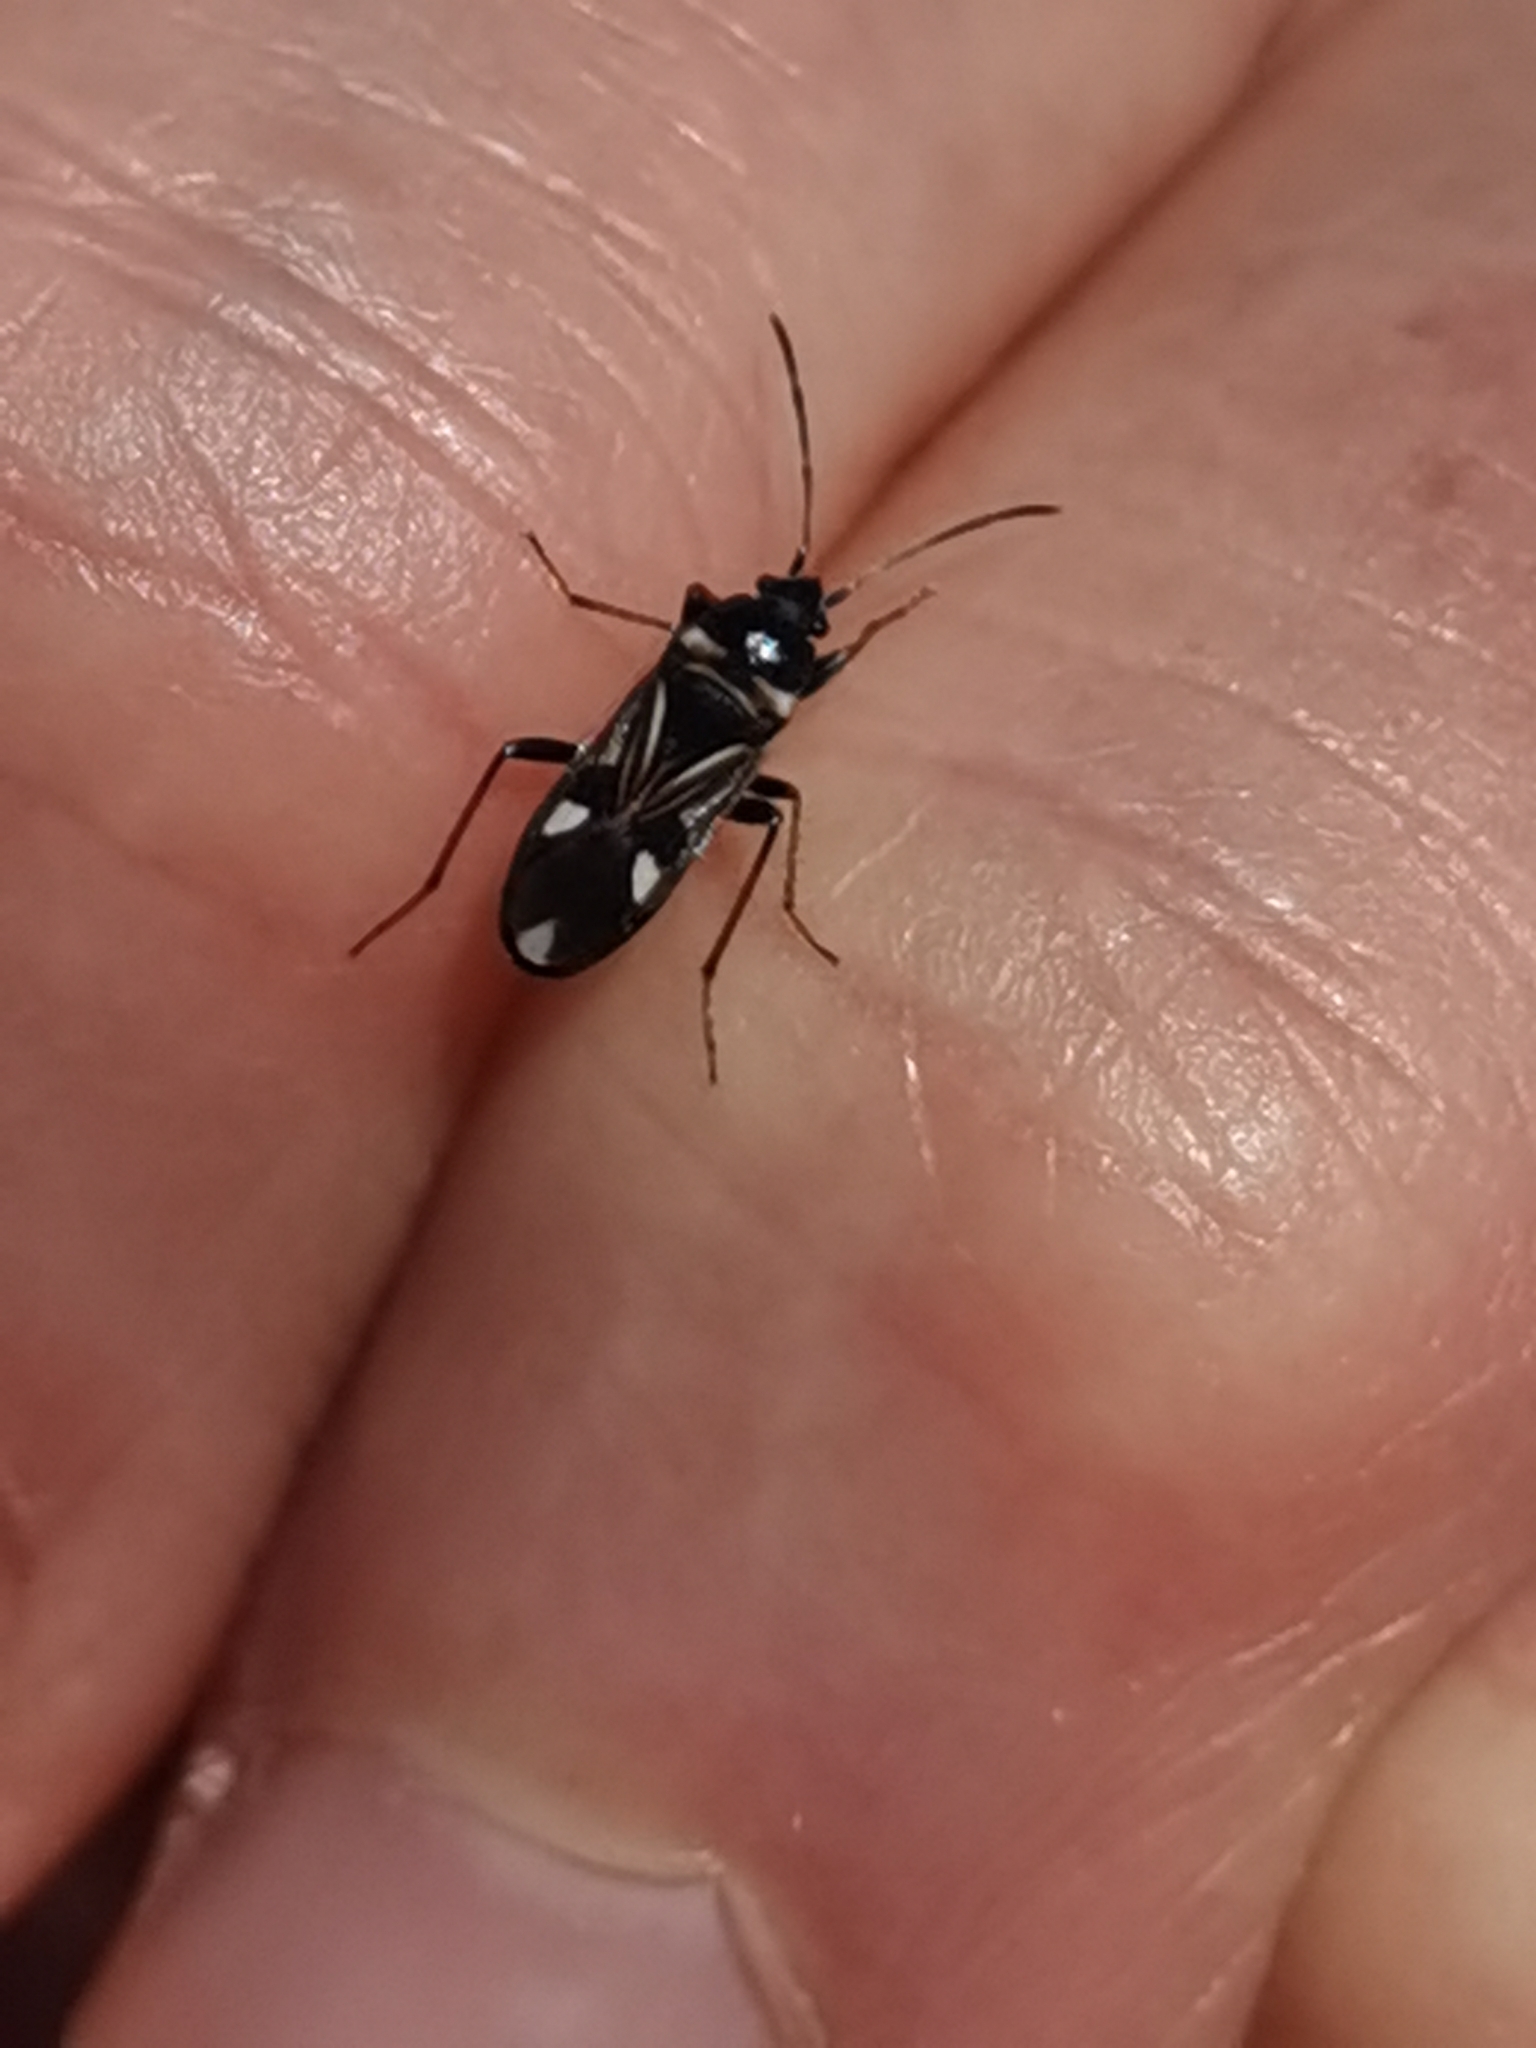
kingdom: Animalia
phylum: Arthropoda
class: Insecta
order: Hemiptera
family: Rhyparochromidae
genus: Raglius
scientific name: Raglius alboacuminatus
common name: Dirt-colored seed bug
